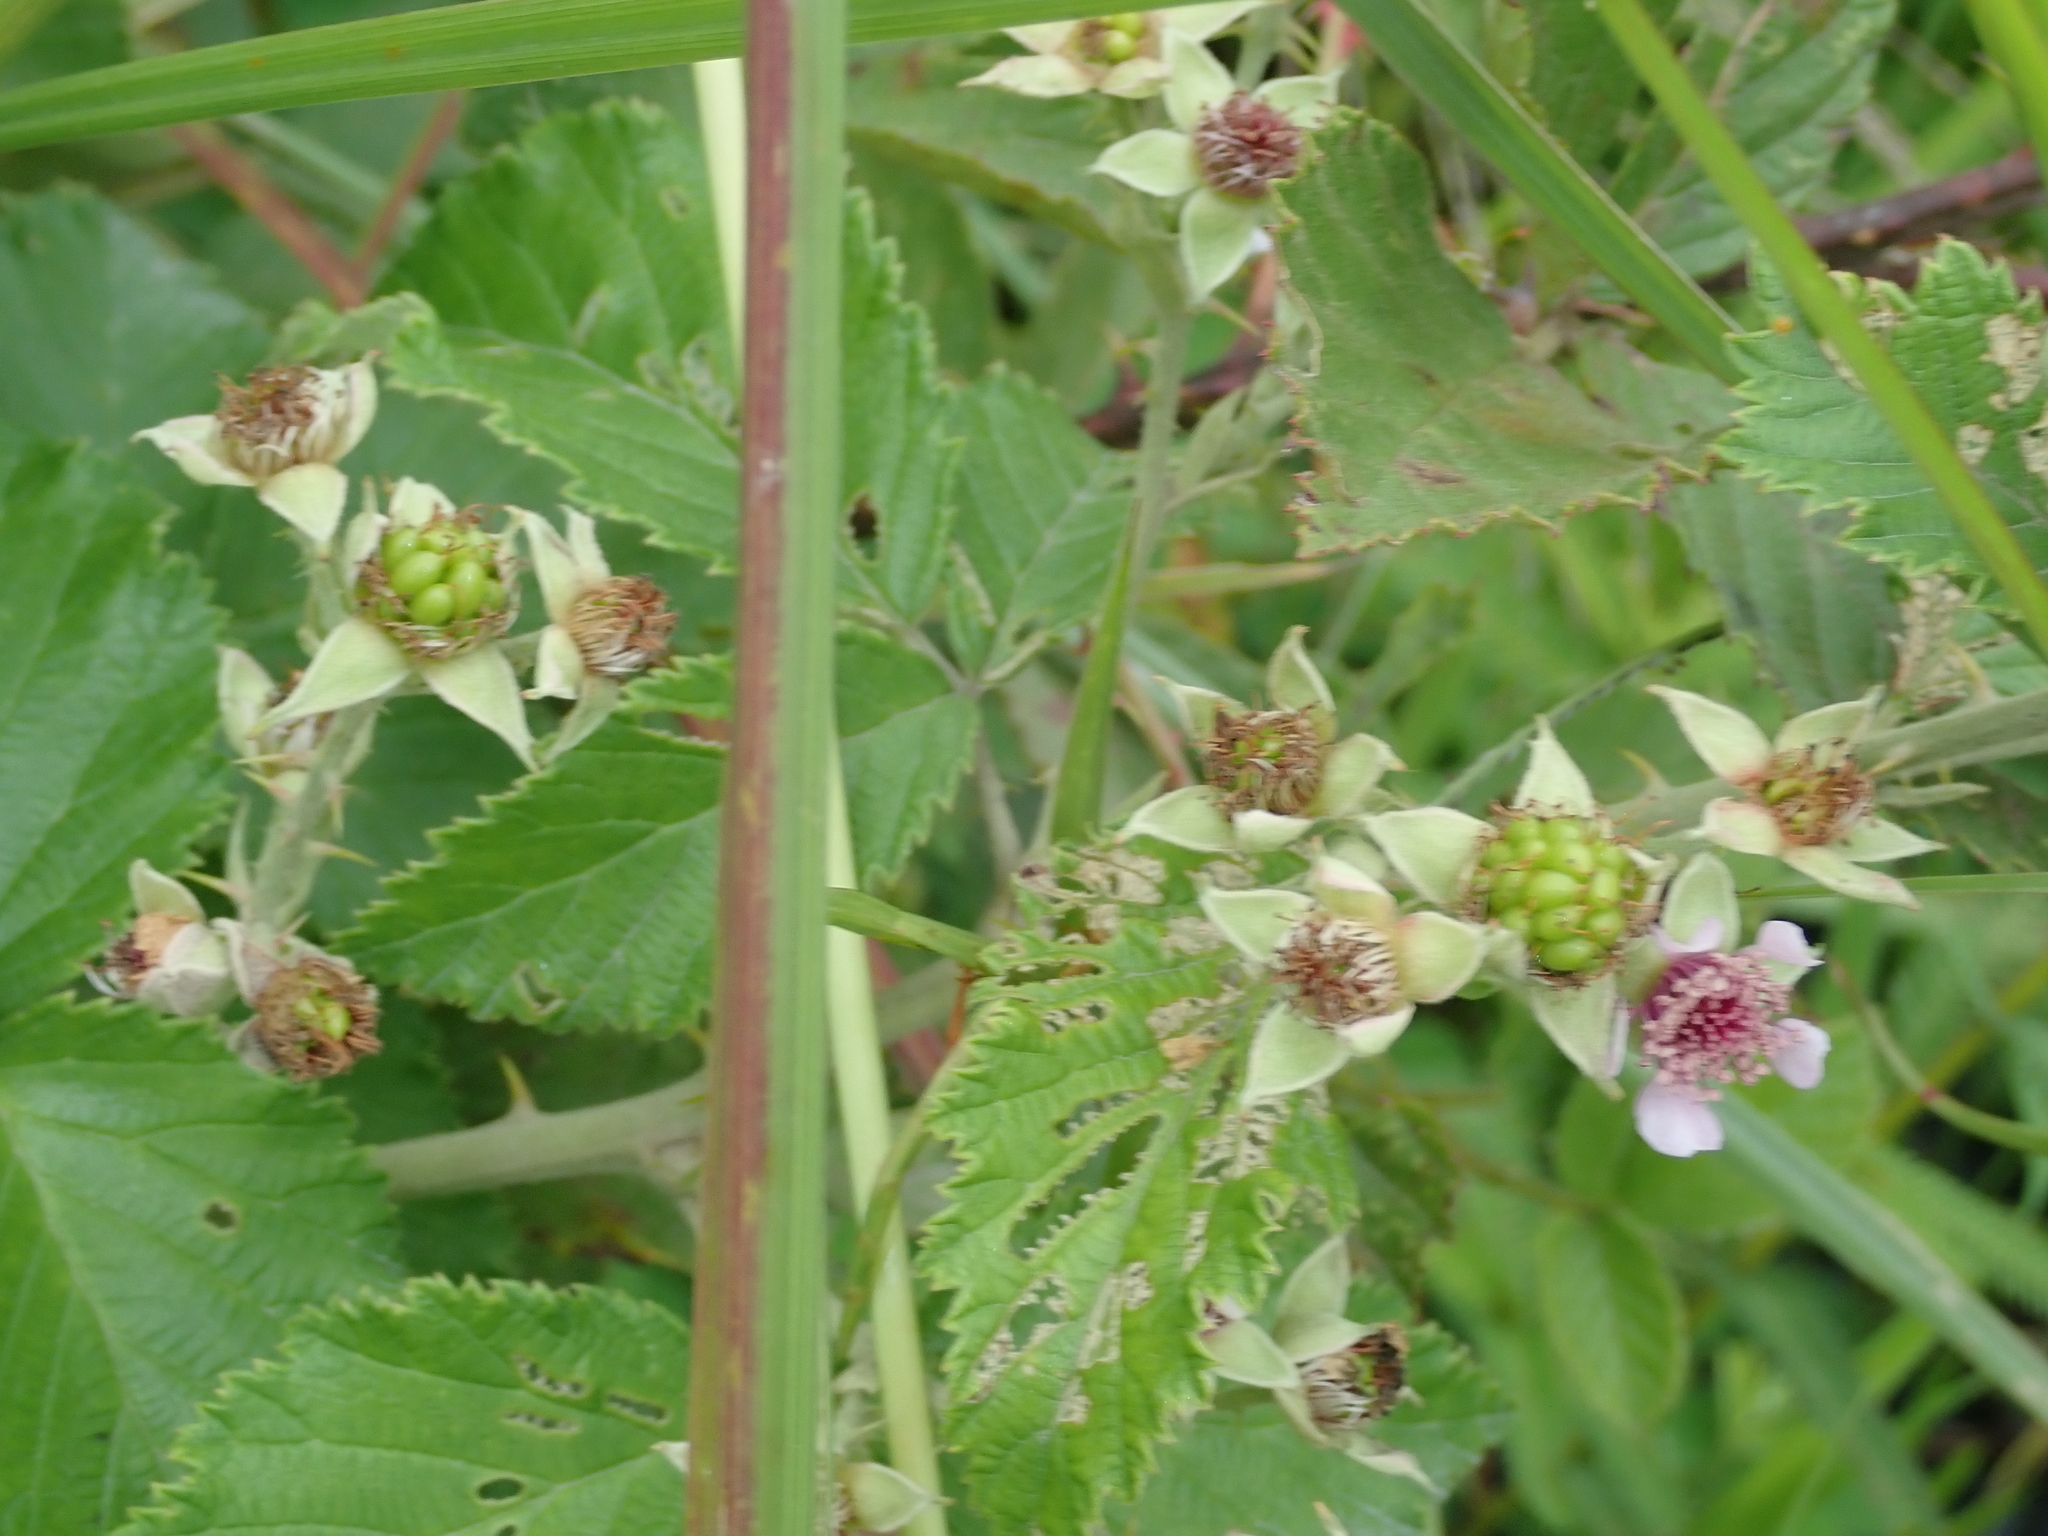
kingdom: Plantae
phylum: Tracheophyta
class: Magnoliopsida
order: Rosales
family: Rosaceae
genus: Rubus
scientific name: Rubus rigidus
